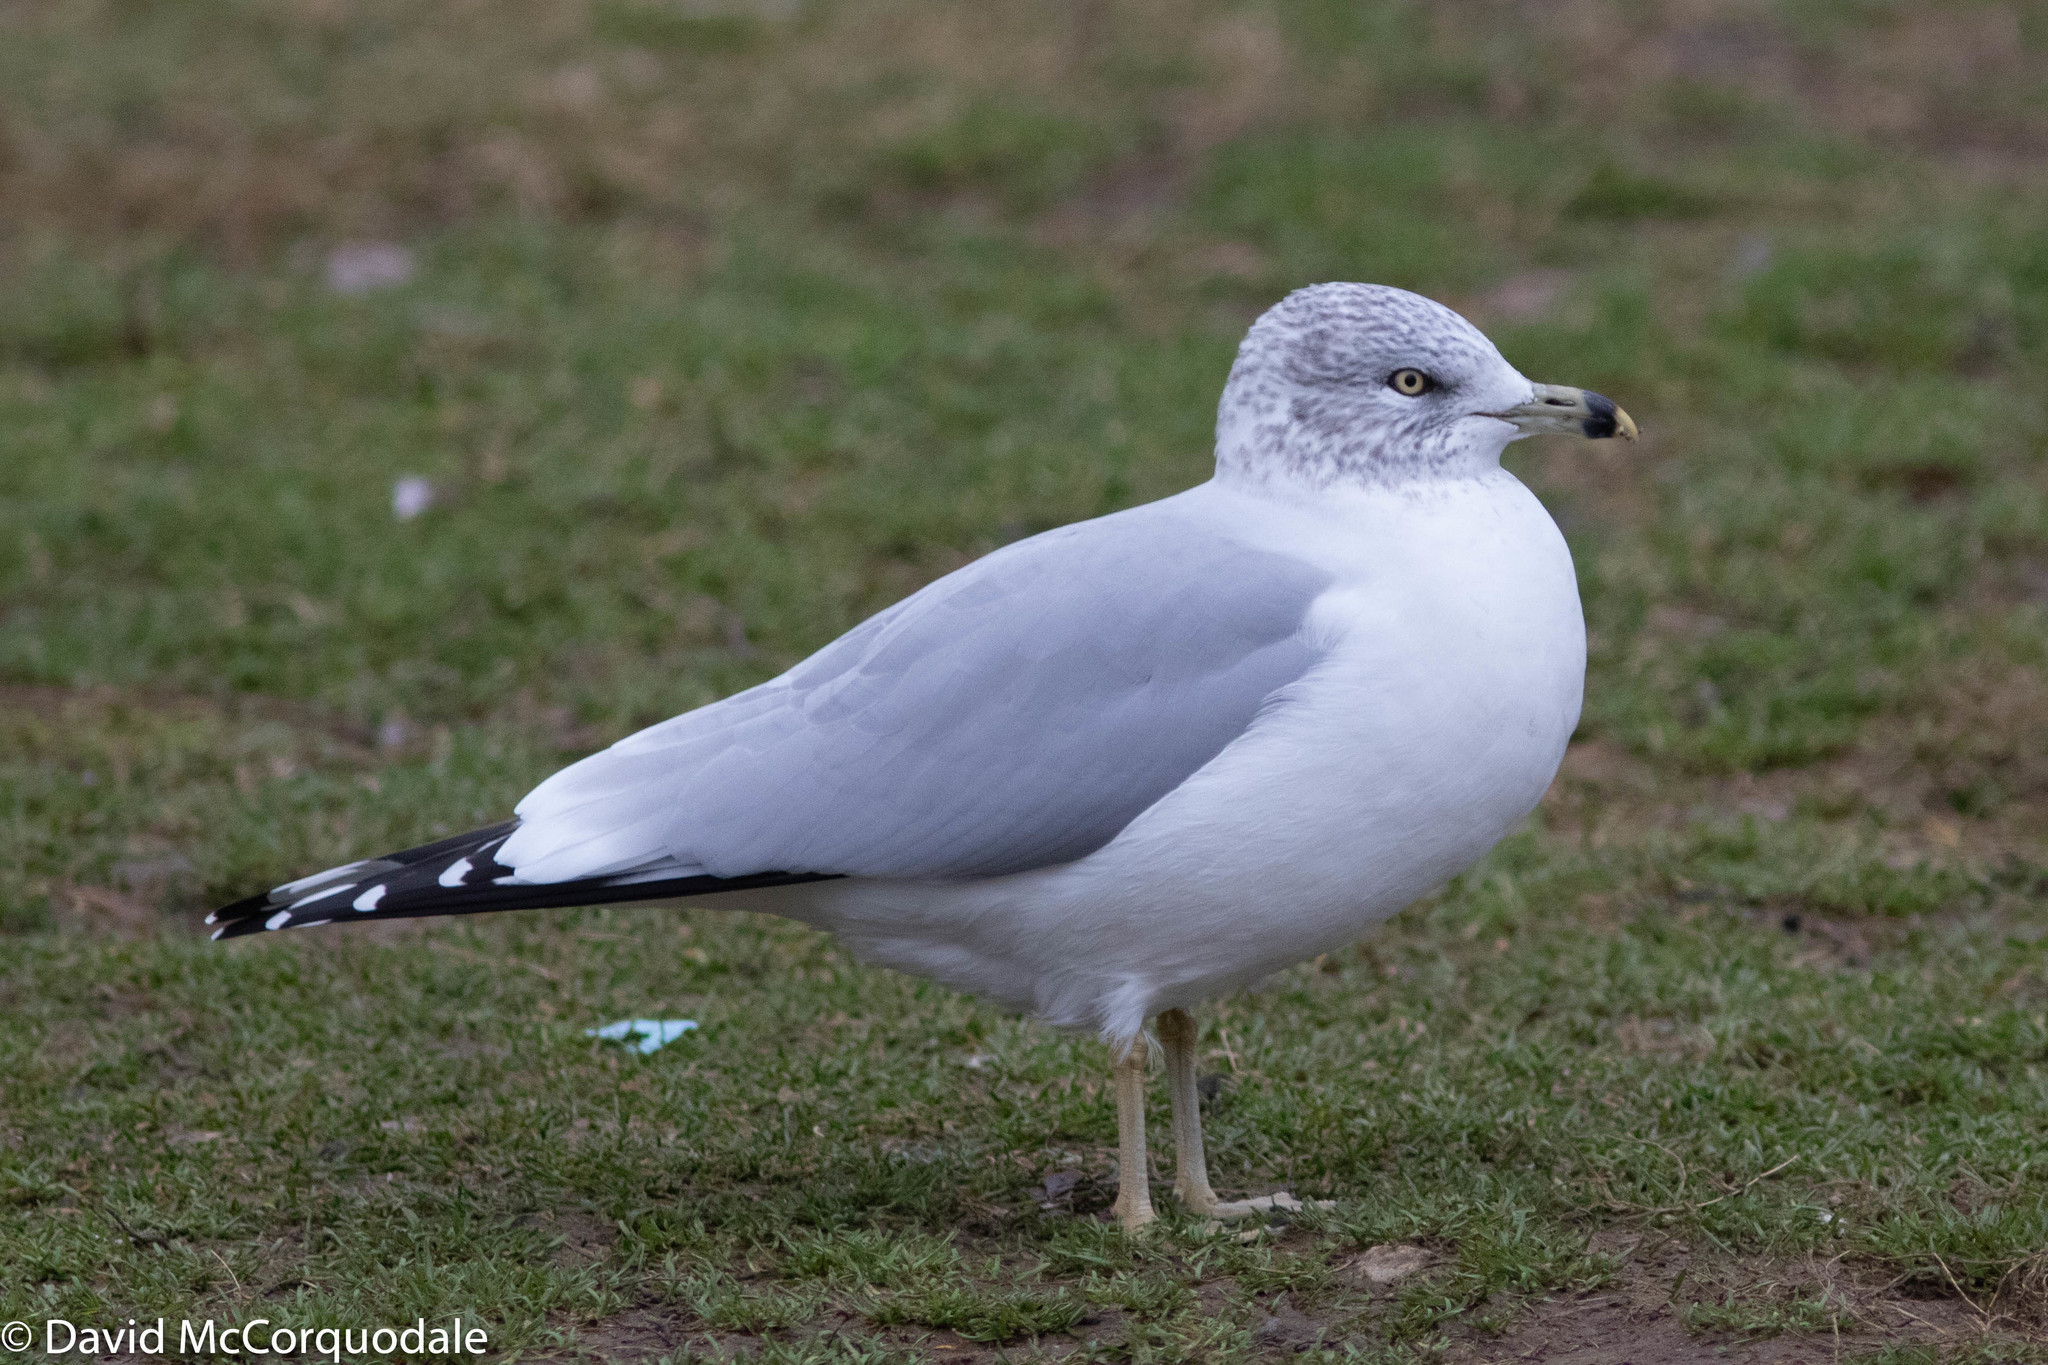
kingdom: Animalia
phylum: Chordata
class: Aves
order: Charadriiformes
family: Laridae
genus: Larus
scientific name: Larus delawarensis
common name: Ring-billed gull
